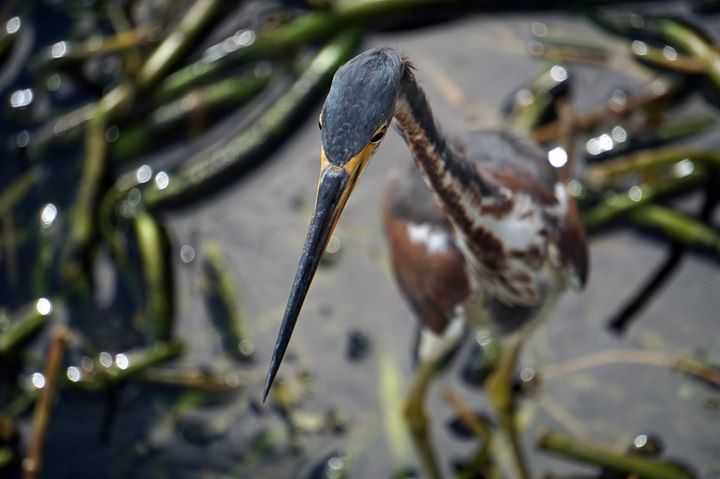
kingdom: Animalia
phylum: Chordata
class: Aves
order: Pelecaniformes
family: Ardeidae
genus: Egretta
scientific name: Egretta tricolor
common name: Tricolored heron
